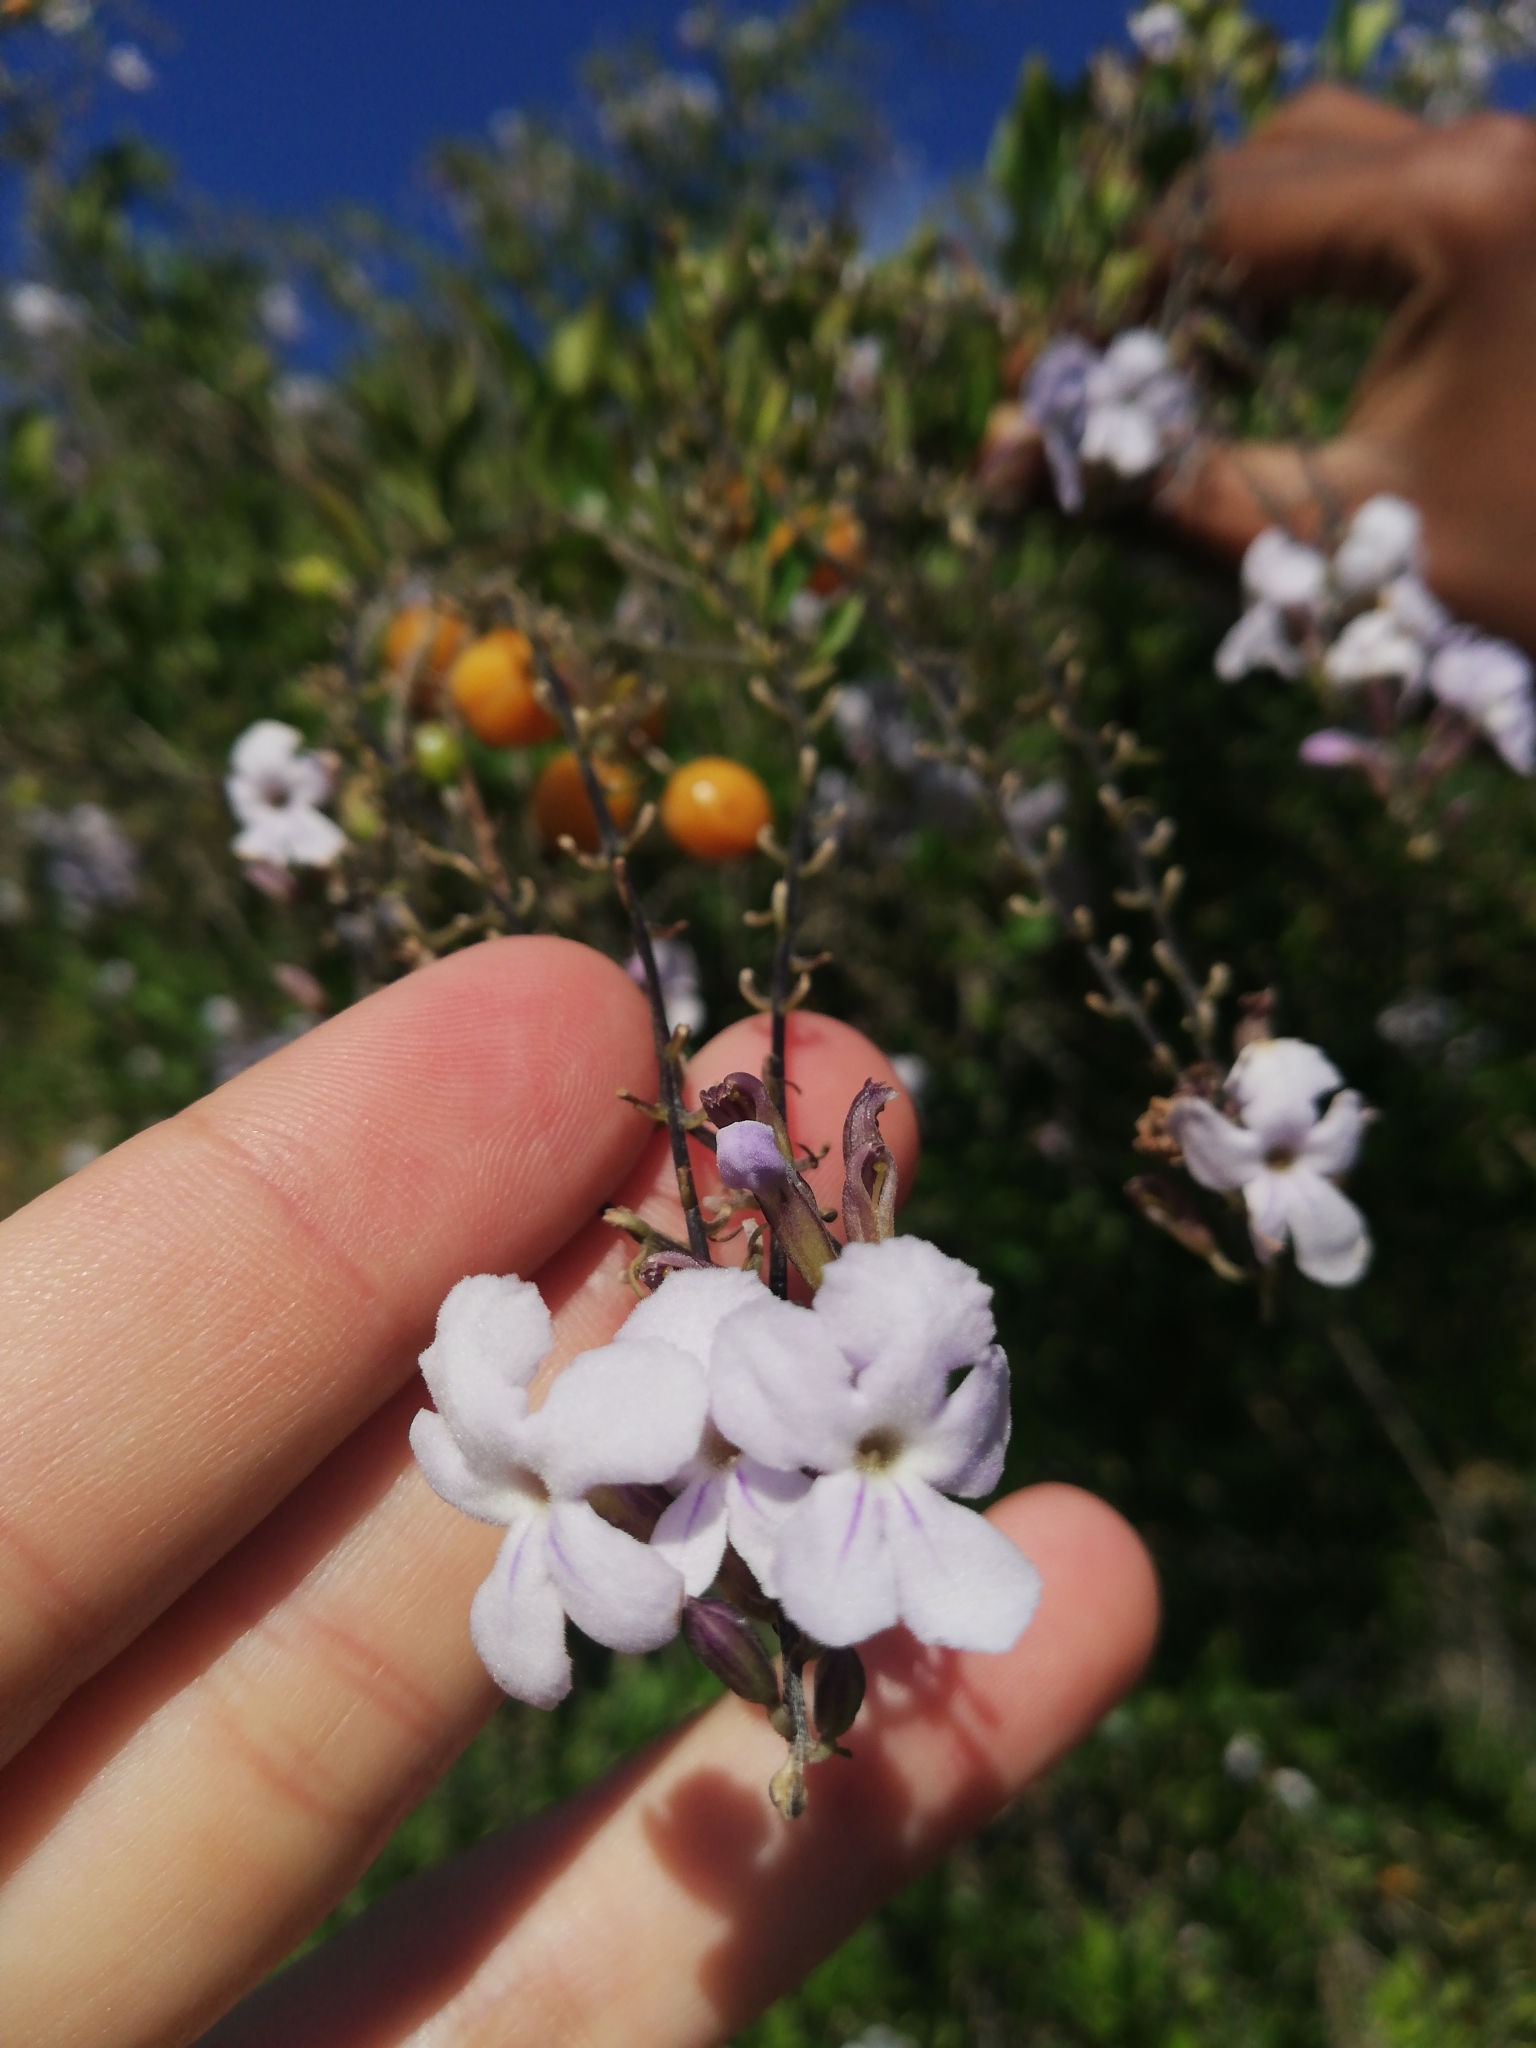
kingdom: Plantae
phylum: Tracheophyta
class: Magnoliopsida
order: Lamiales
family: Verbenaceae
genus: Duranta
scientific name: Duranta erecta
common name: Golden dewdrops
